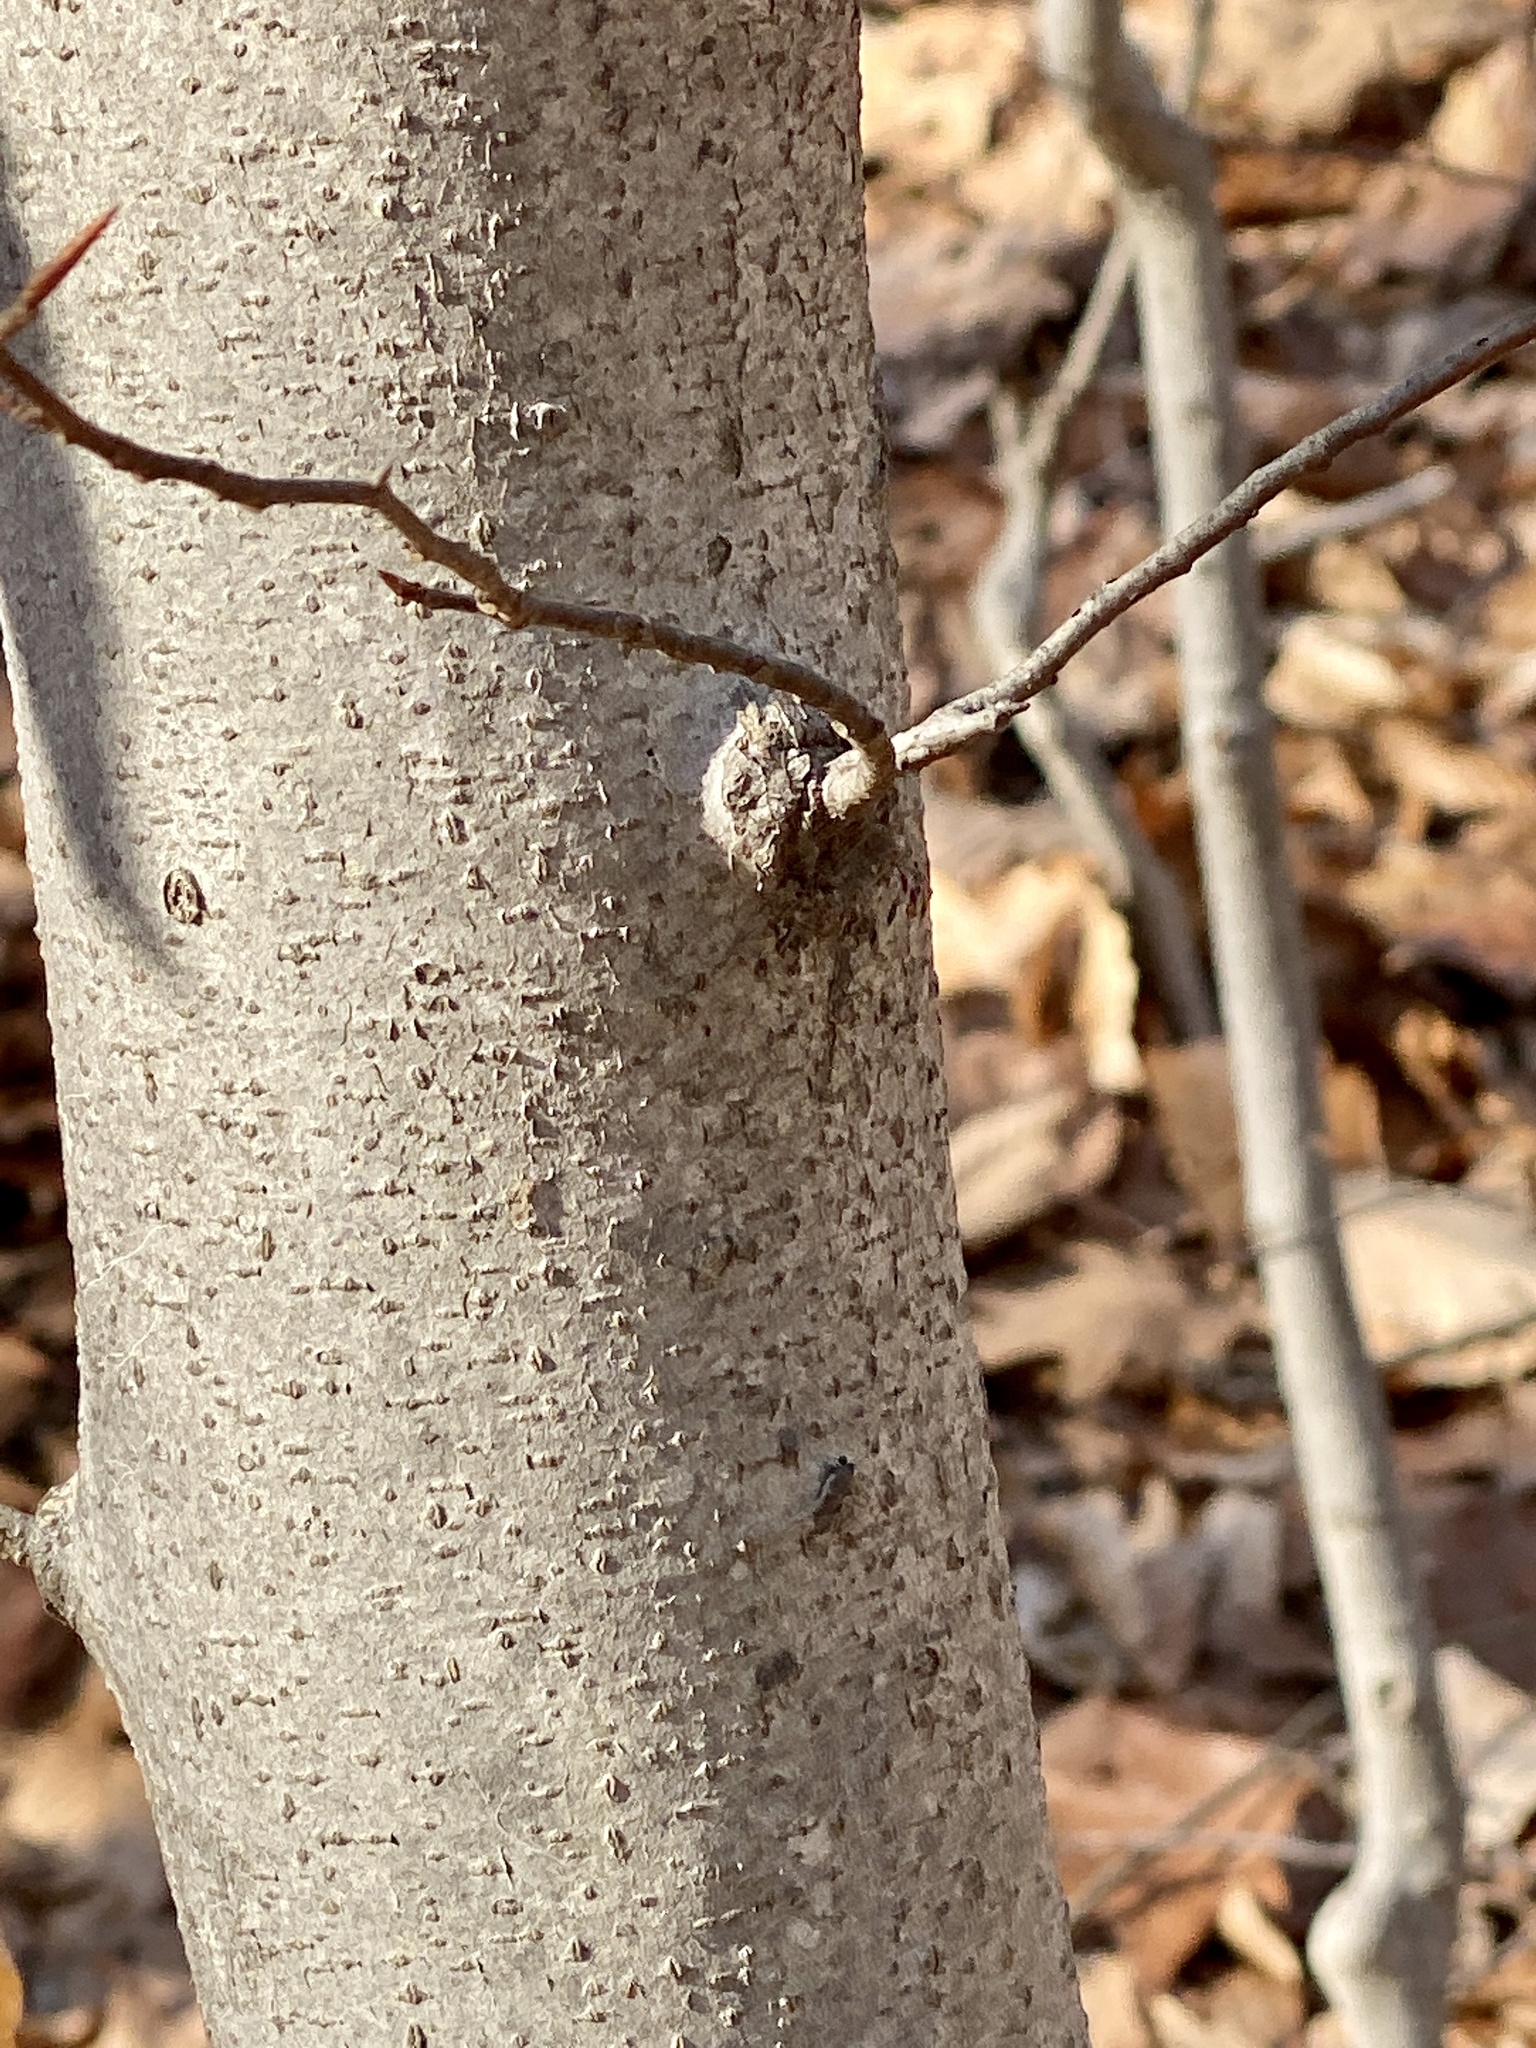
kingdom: Plantae
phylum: Tracheophyta
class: Magnoliopsida
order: Fagales
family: Fagaceae
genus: Fagus
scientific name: Fagus grandifolia
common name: American beech
